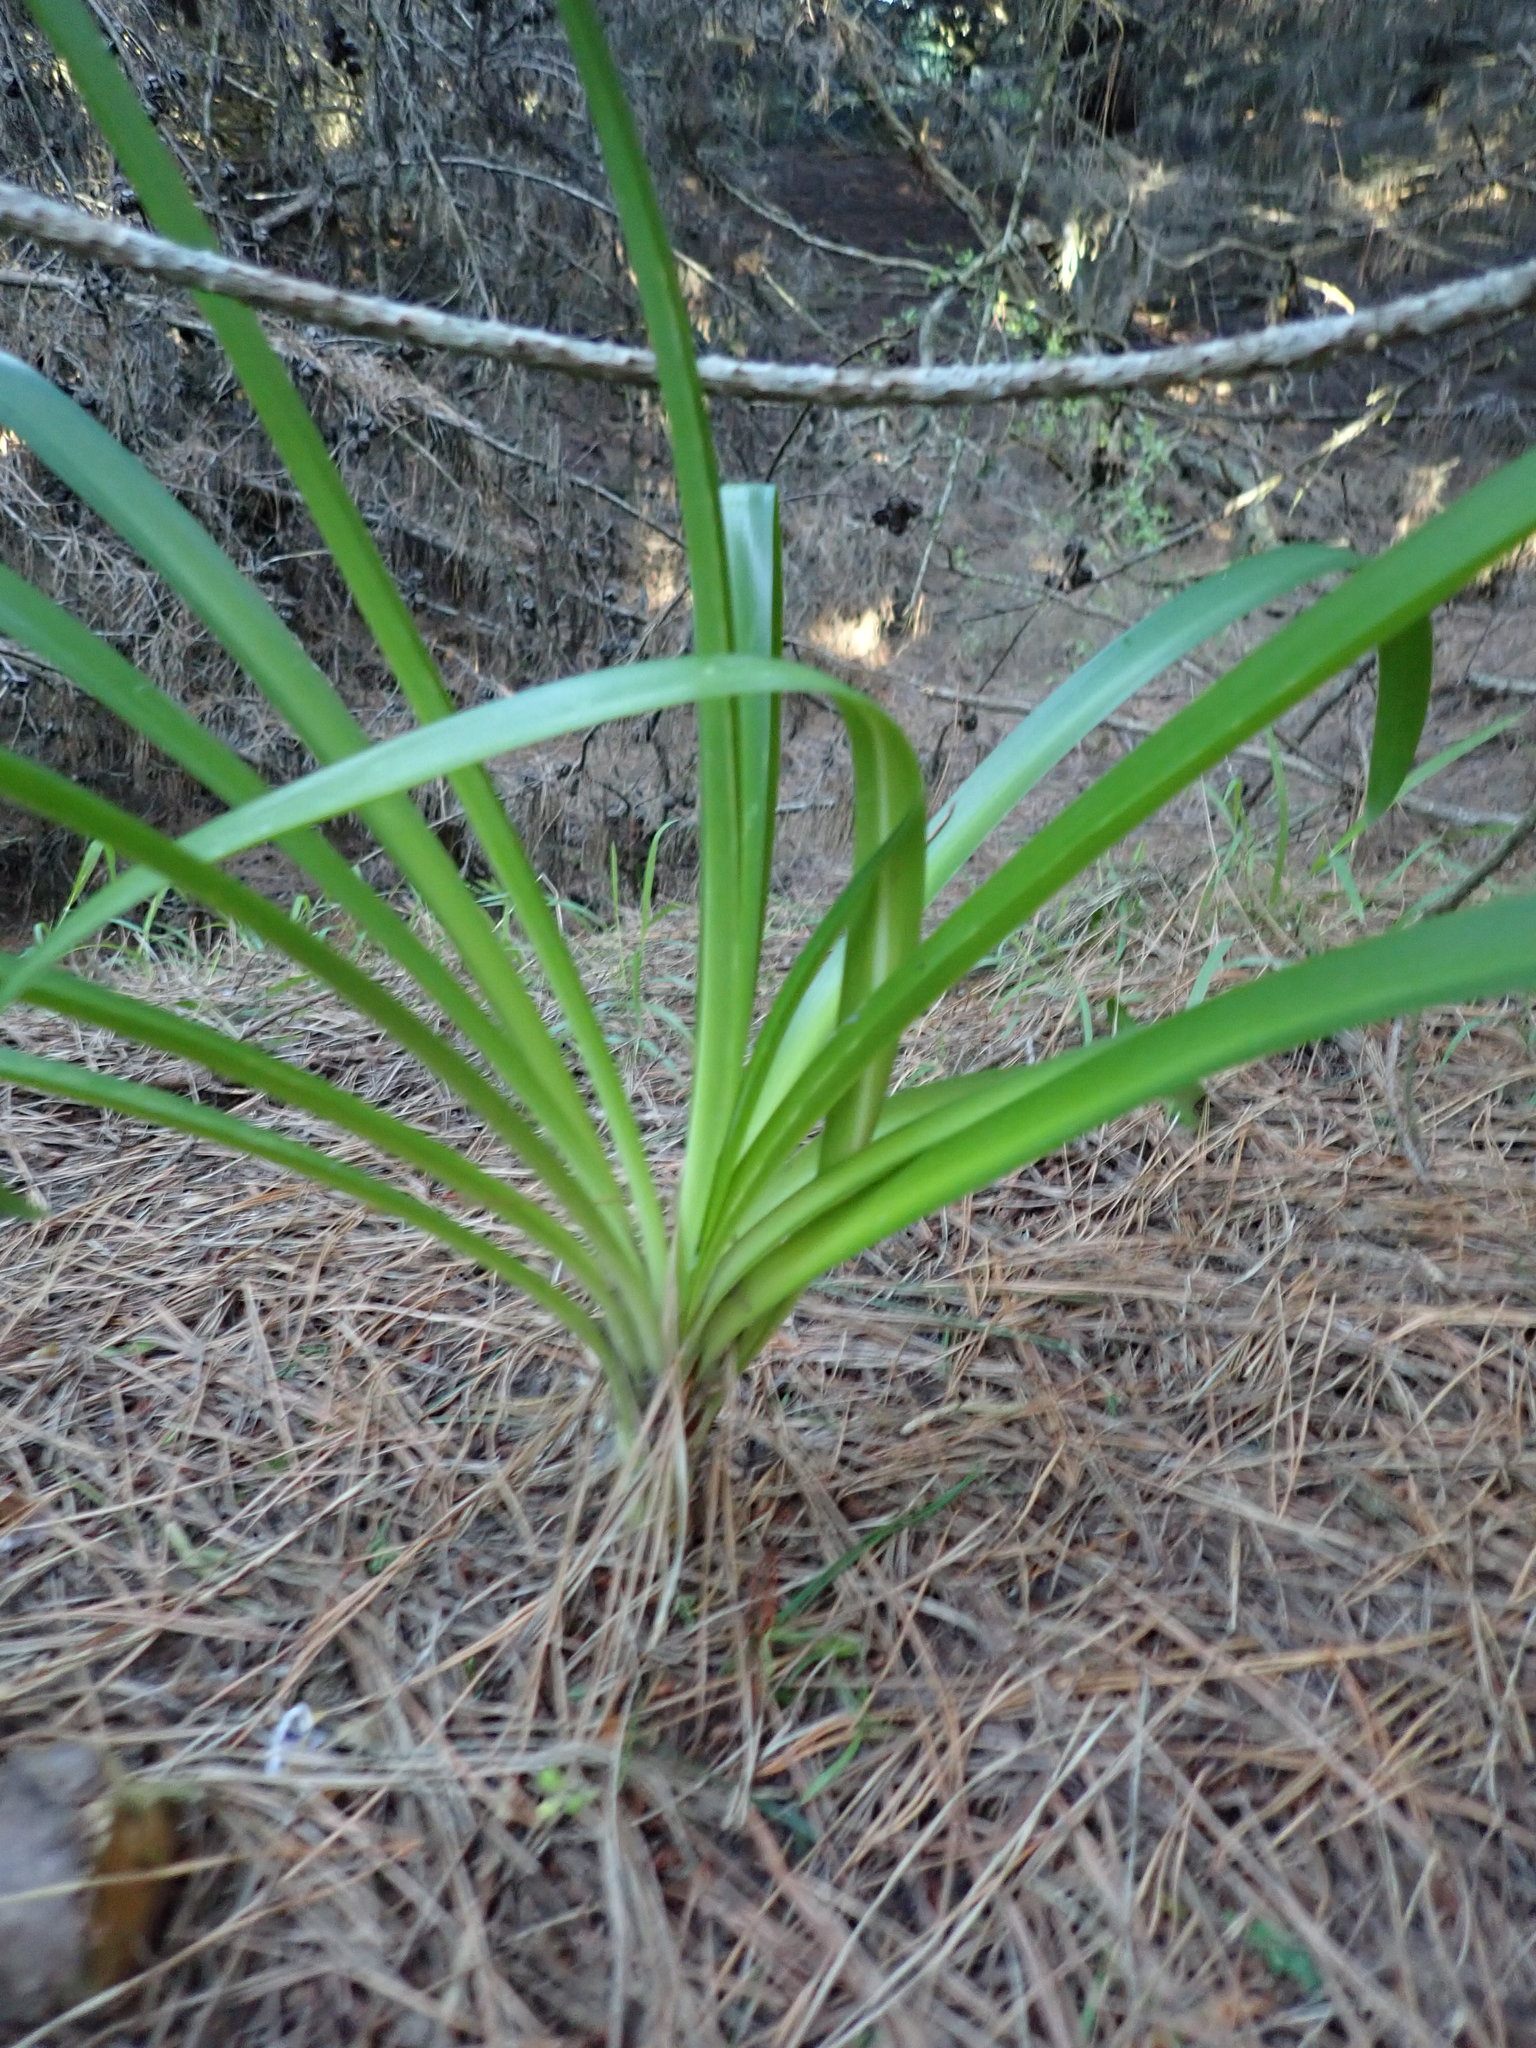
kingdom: Plantae
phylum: Tracheophyta
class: Liliopsida
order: Asparagales
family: Amaryllidaceae
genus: Agapanthus
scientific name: Agapanthus praecox
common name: African-lily
